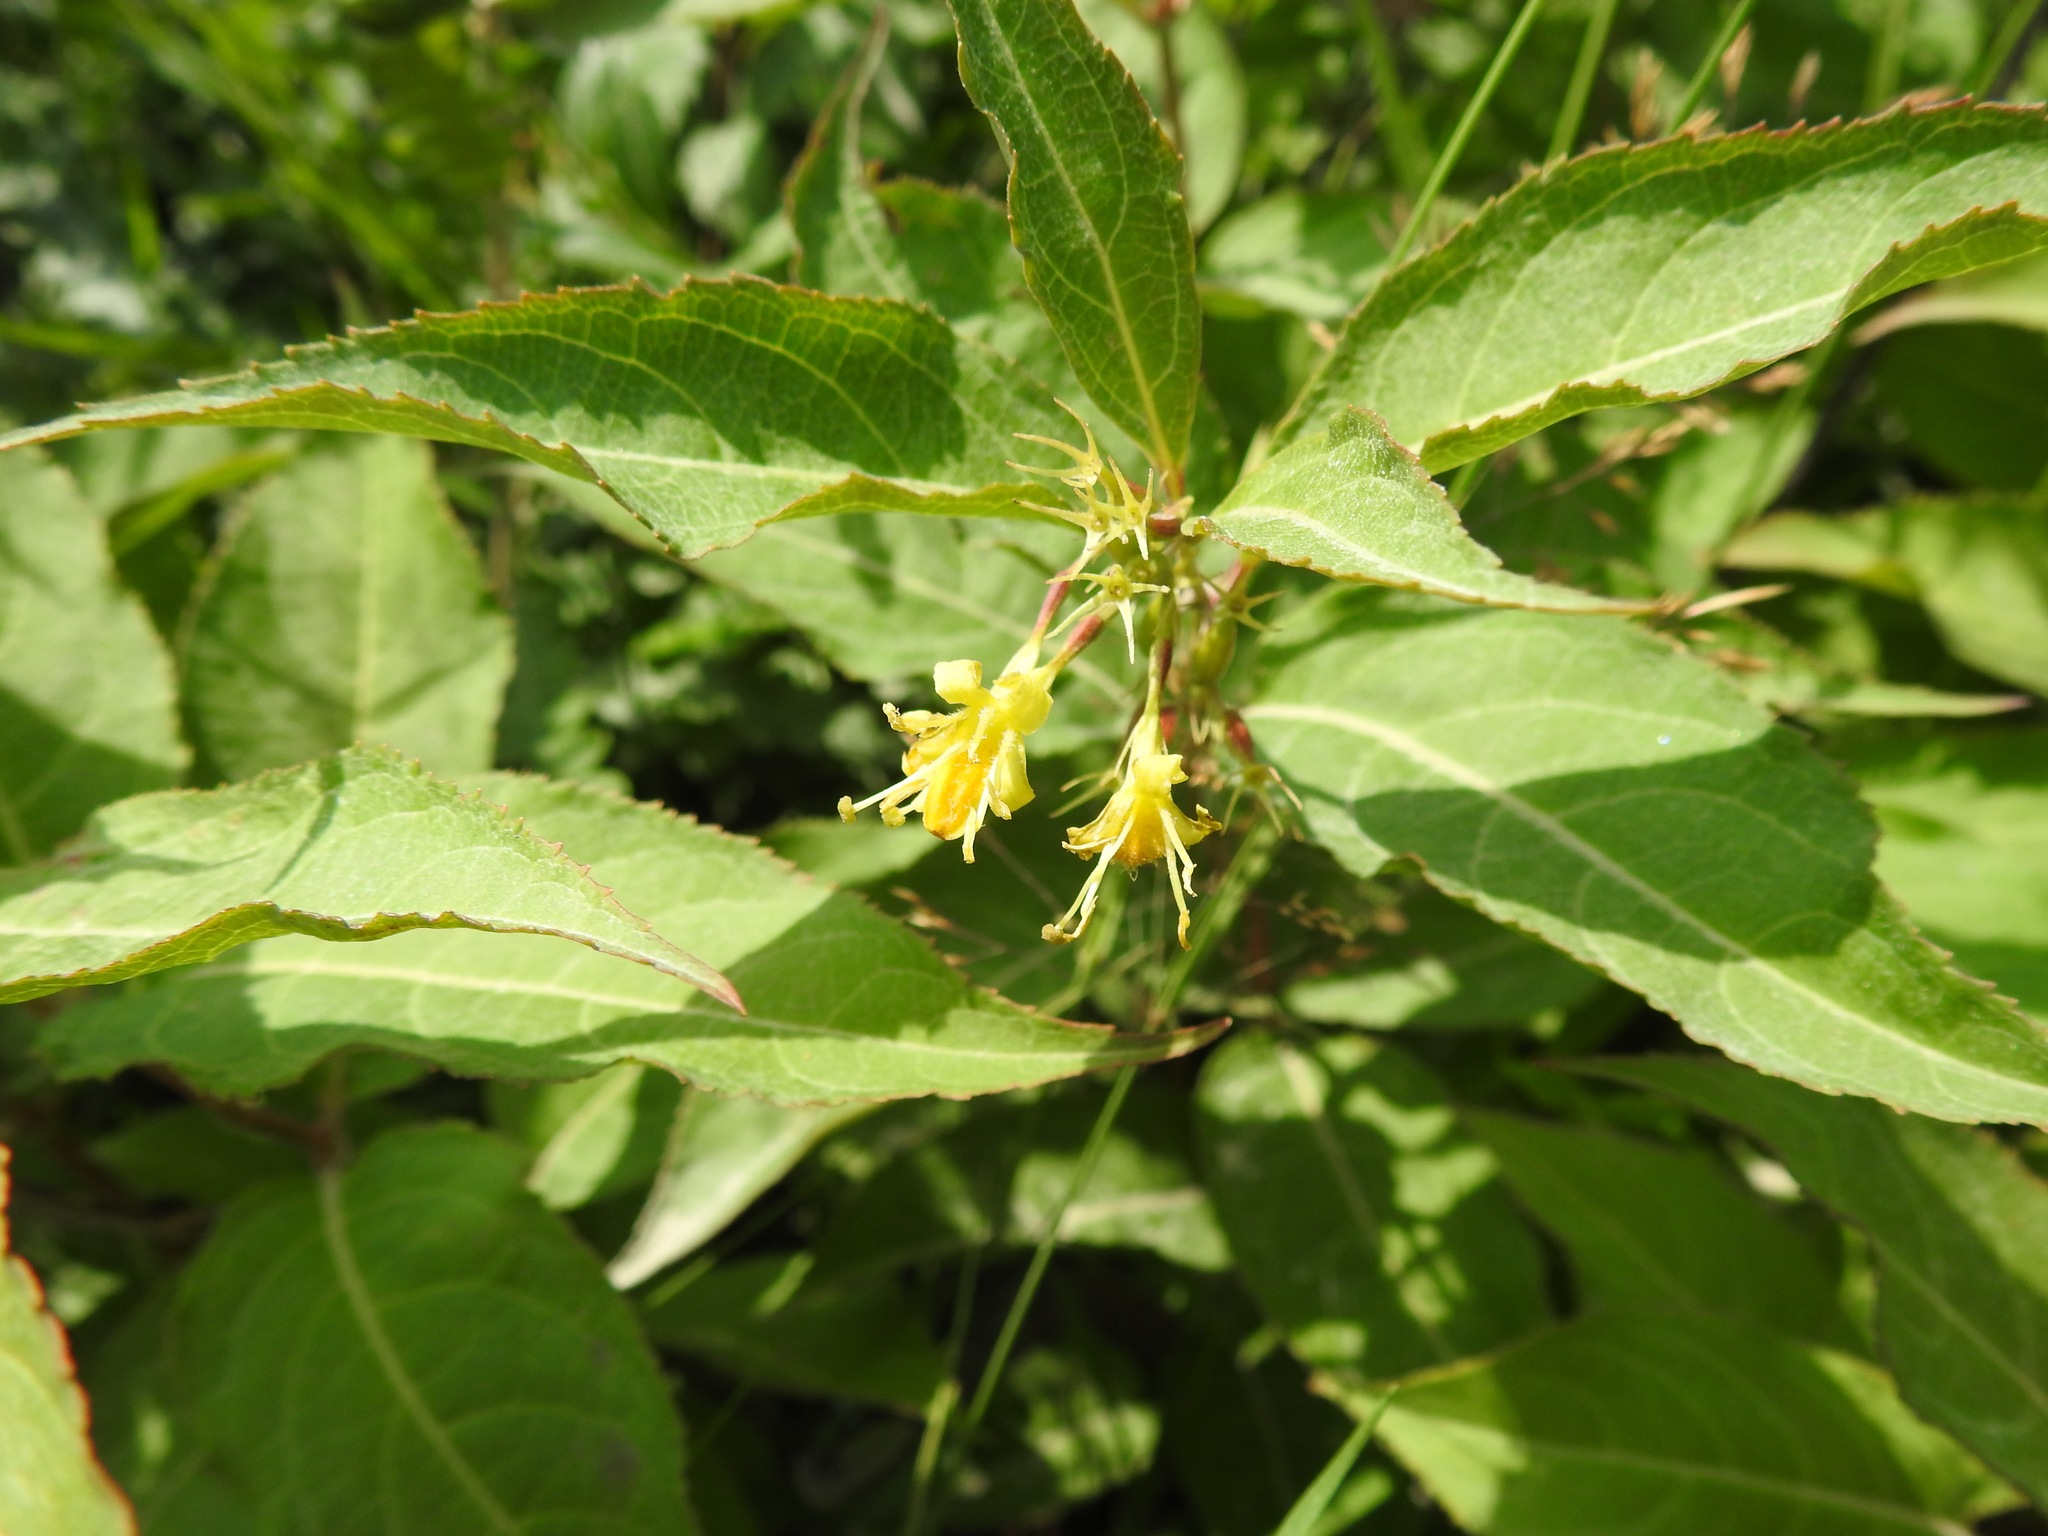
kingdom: Plantae
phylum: Tracheophyta
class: Magnoliopsida
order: Dipsacales
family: Caprifoliaceae
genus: Diervilla
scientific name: Diervilla lonicera
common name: Bush-honeysuckle
